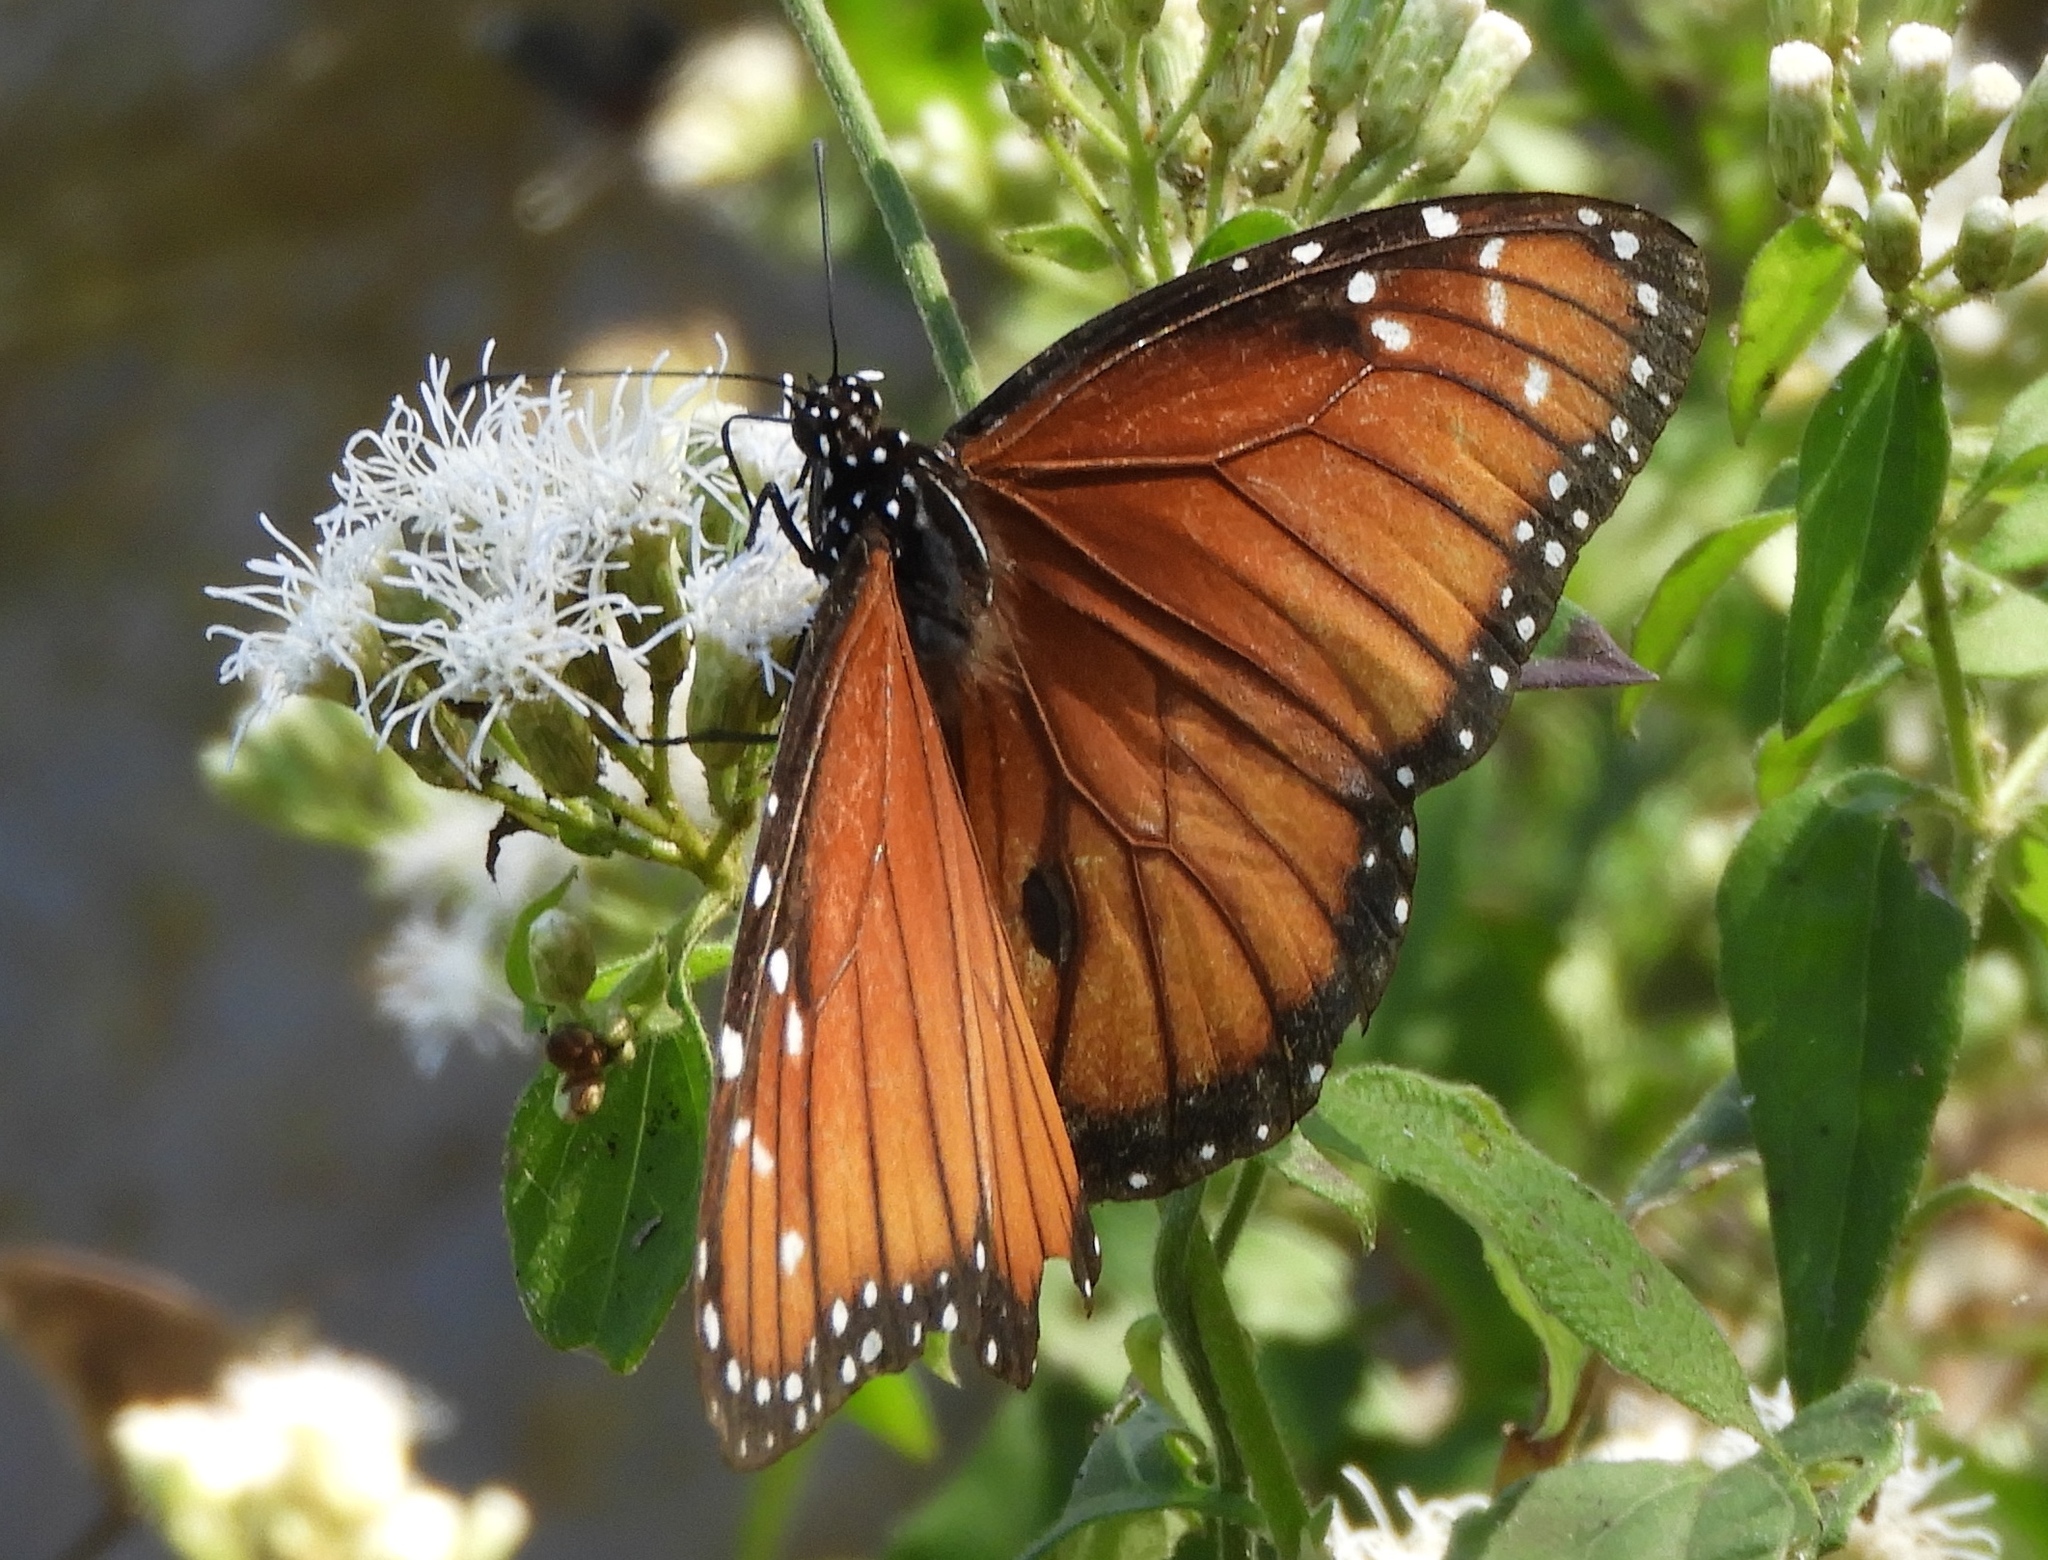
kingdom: Animalia
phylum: Arthropoda
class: Insecta
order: Lepidoptera
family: Nymphalidae
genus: Danaus
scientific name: Danaus eresimus
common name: Soldier
